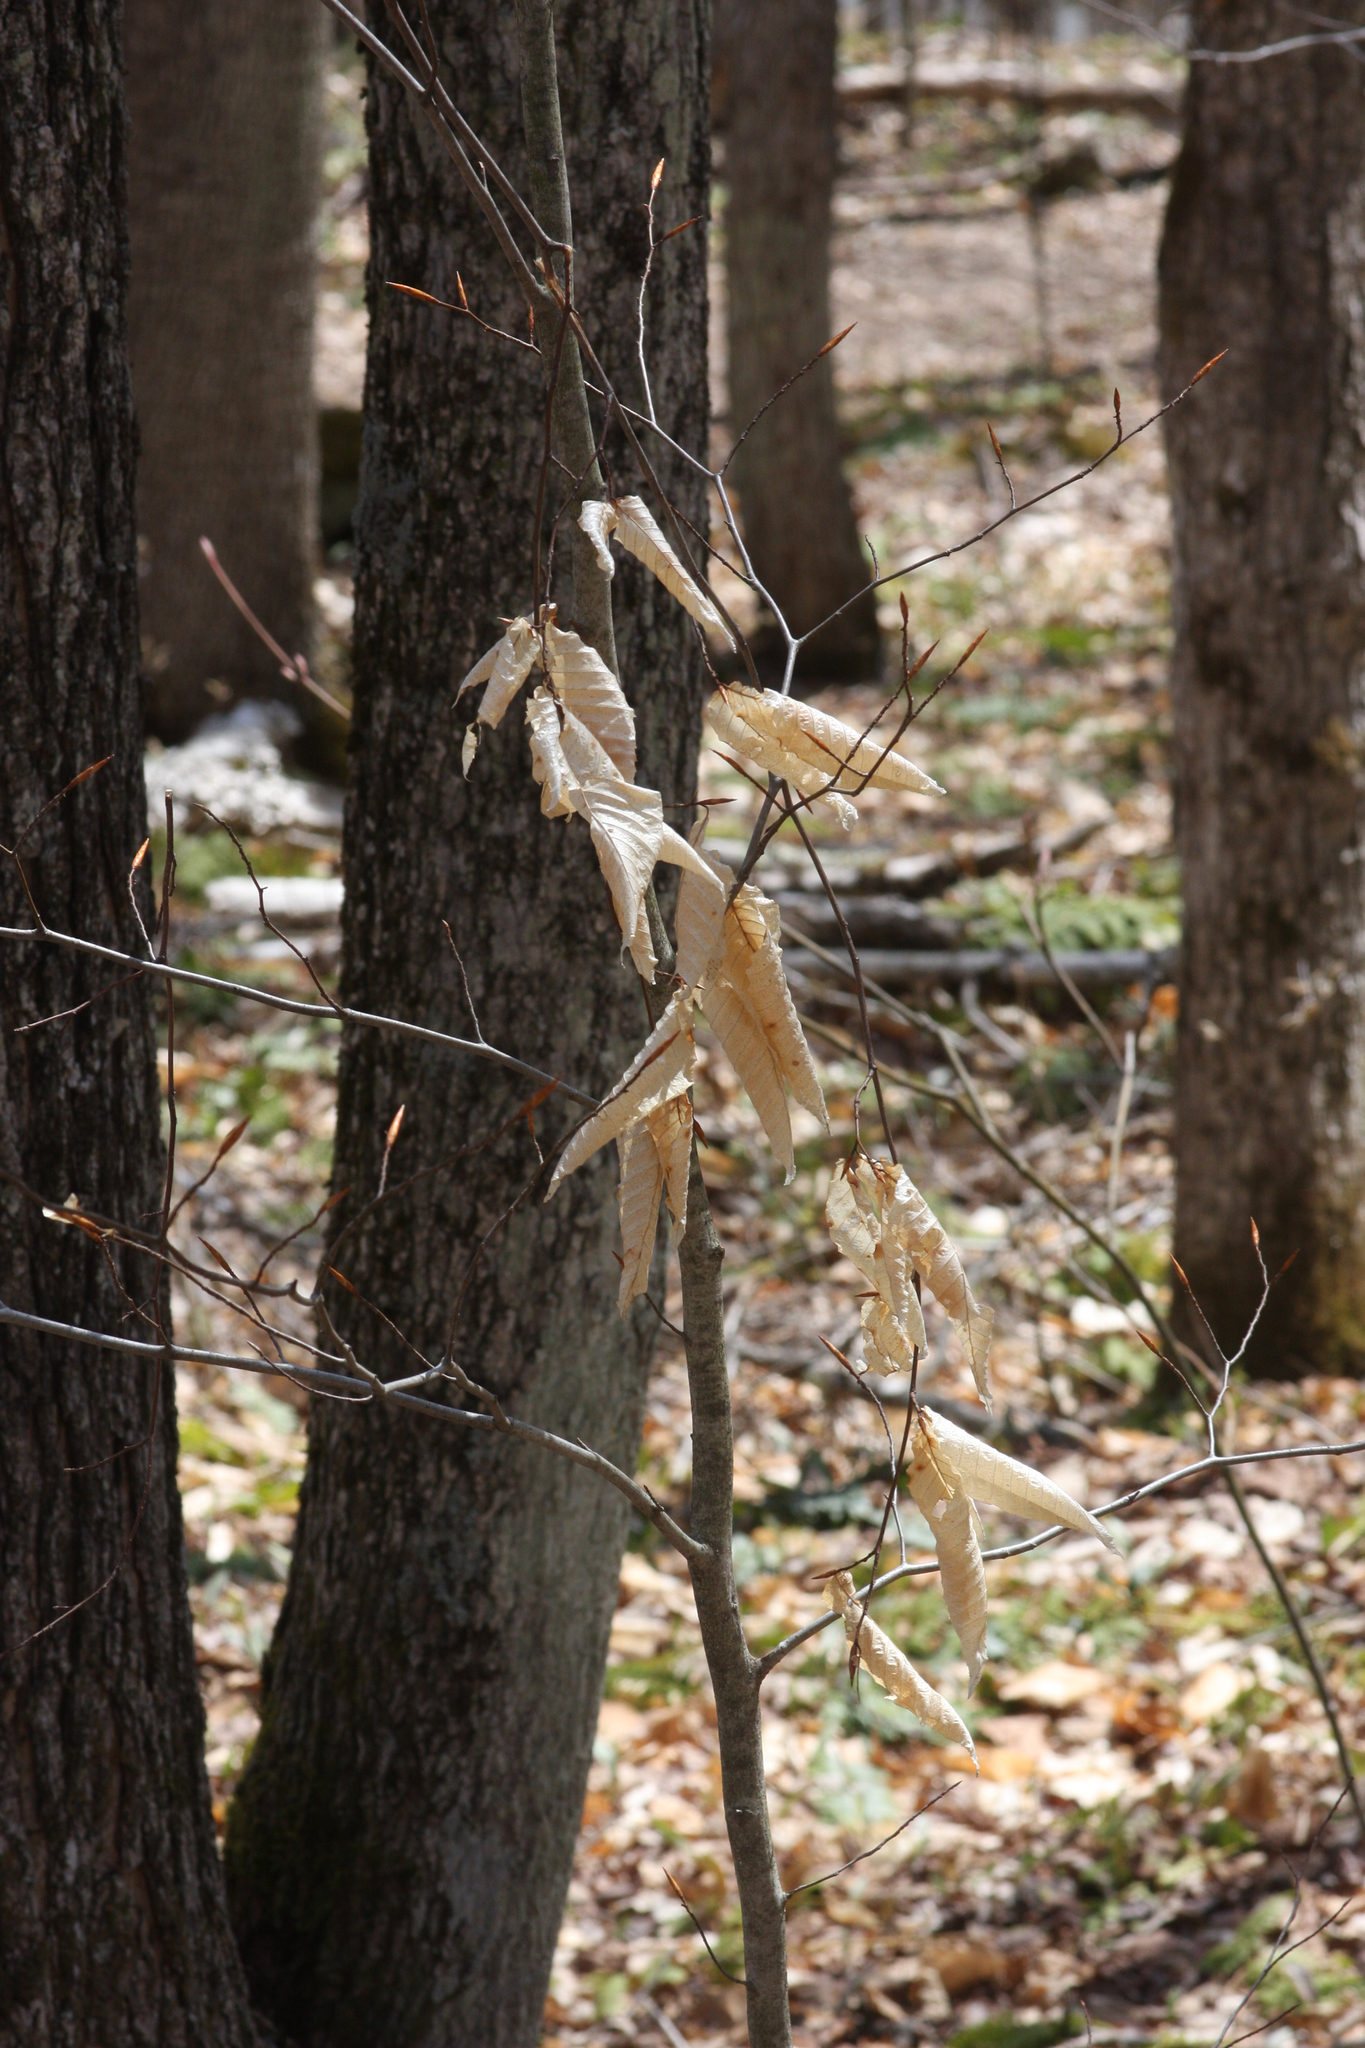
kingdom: Plantae
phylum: Tracheophyta
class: Magnoliopsida
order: Fagales
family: Fagaceae
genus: Fagus
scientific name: Fagus grandifolia
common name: American beech
